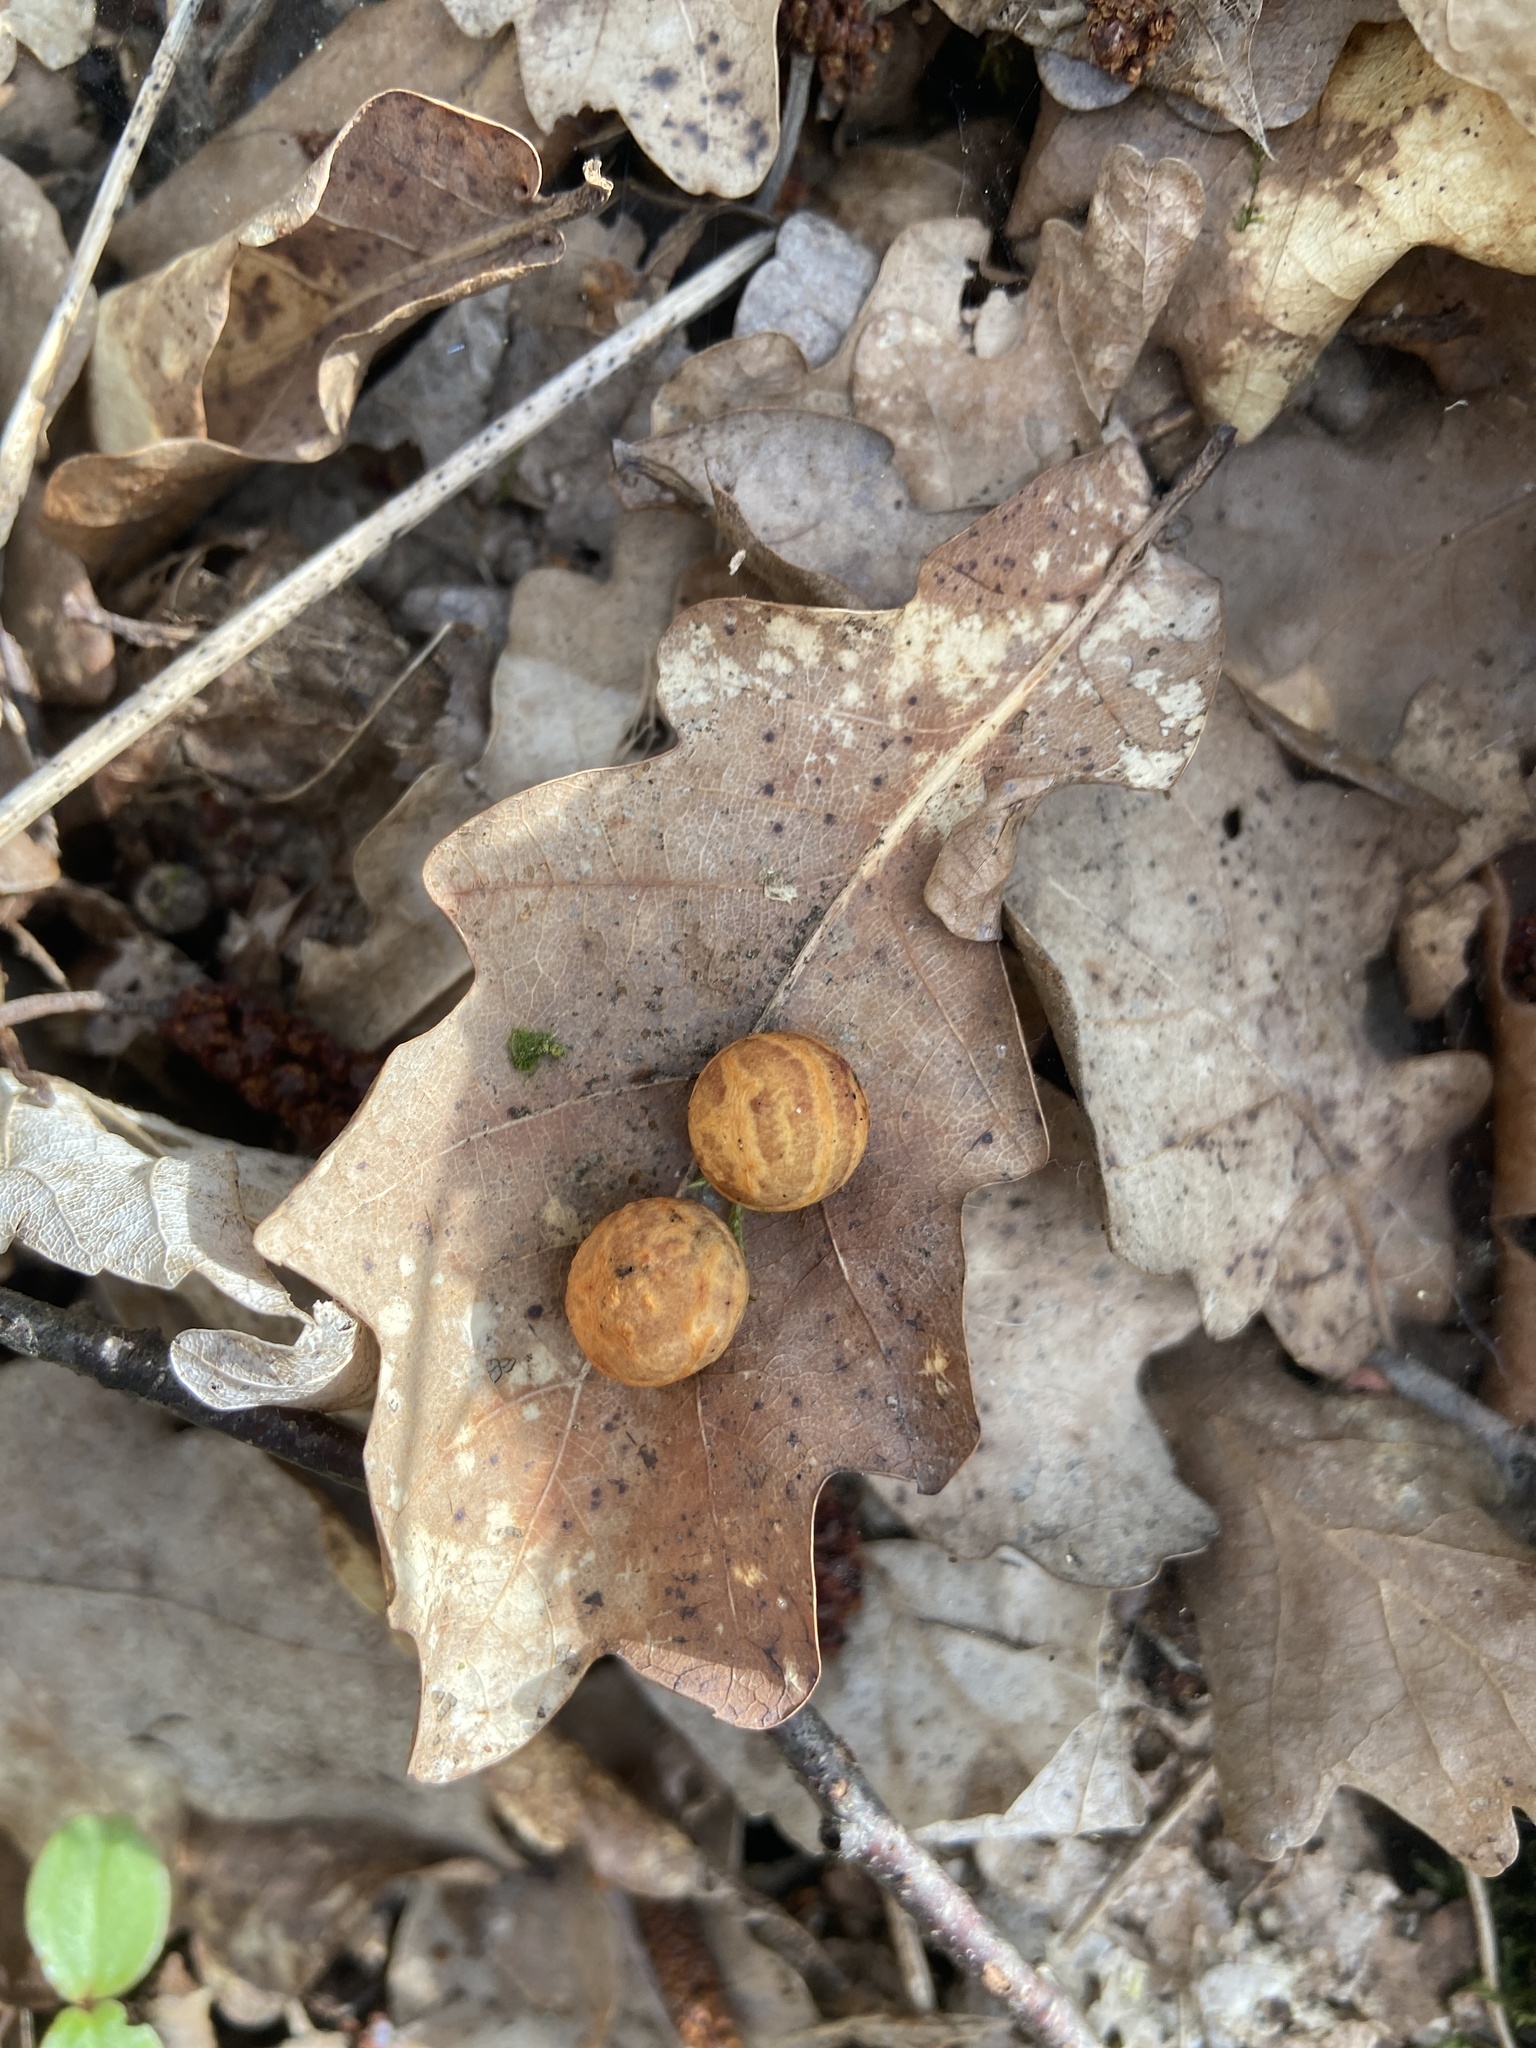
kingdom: Animalia
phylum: Arthropoda
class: Insecta
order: Hymenoptera
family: Cynipidae
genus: Cynips
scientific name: Cynips longiventris
